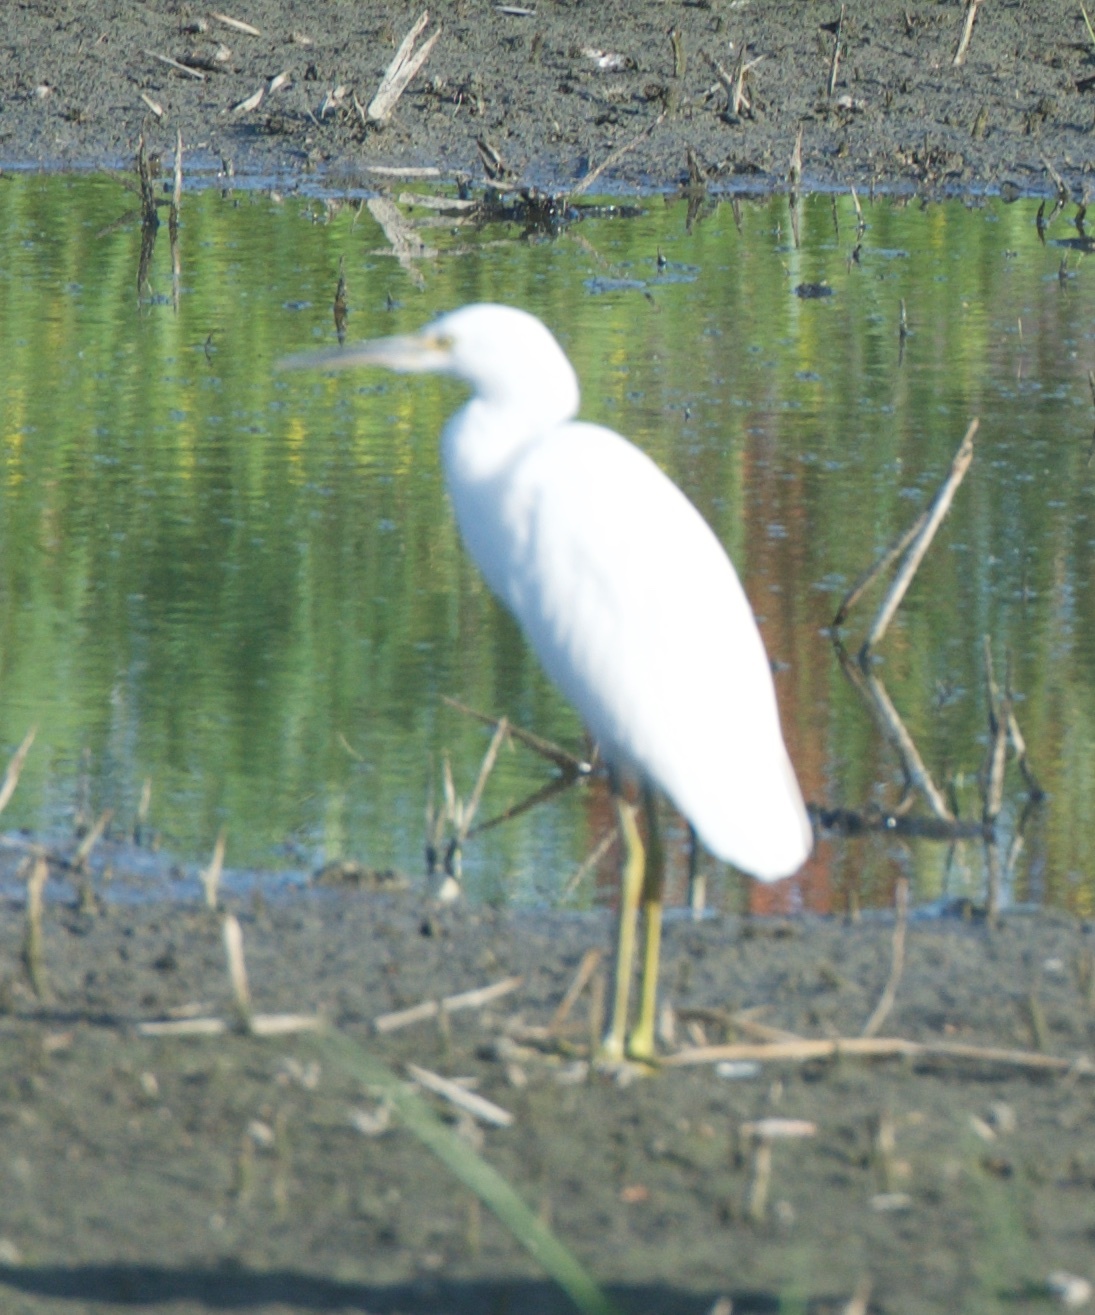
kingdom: Animalia
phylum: Chordata
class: Aves
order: Pelecaniformes
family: Ardeidae
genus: Egretta
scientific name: Egretta thula
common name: Snowy egret
